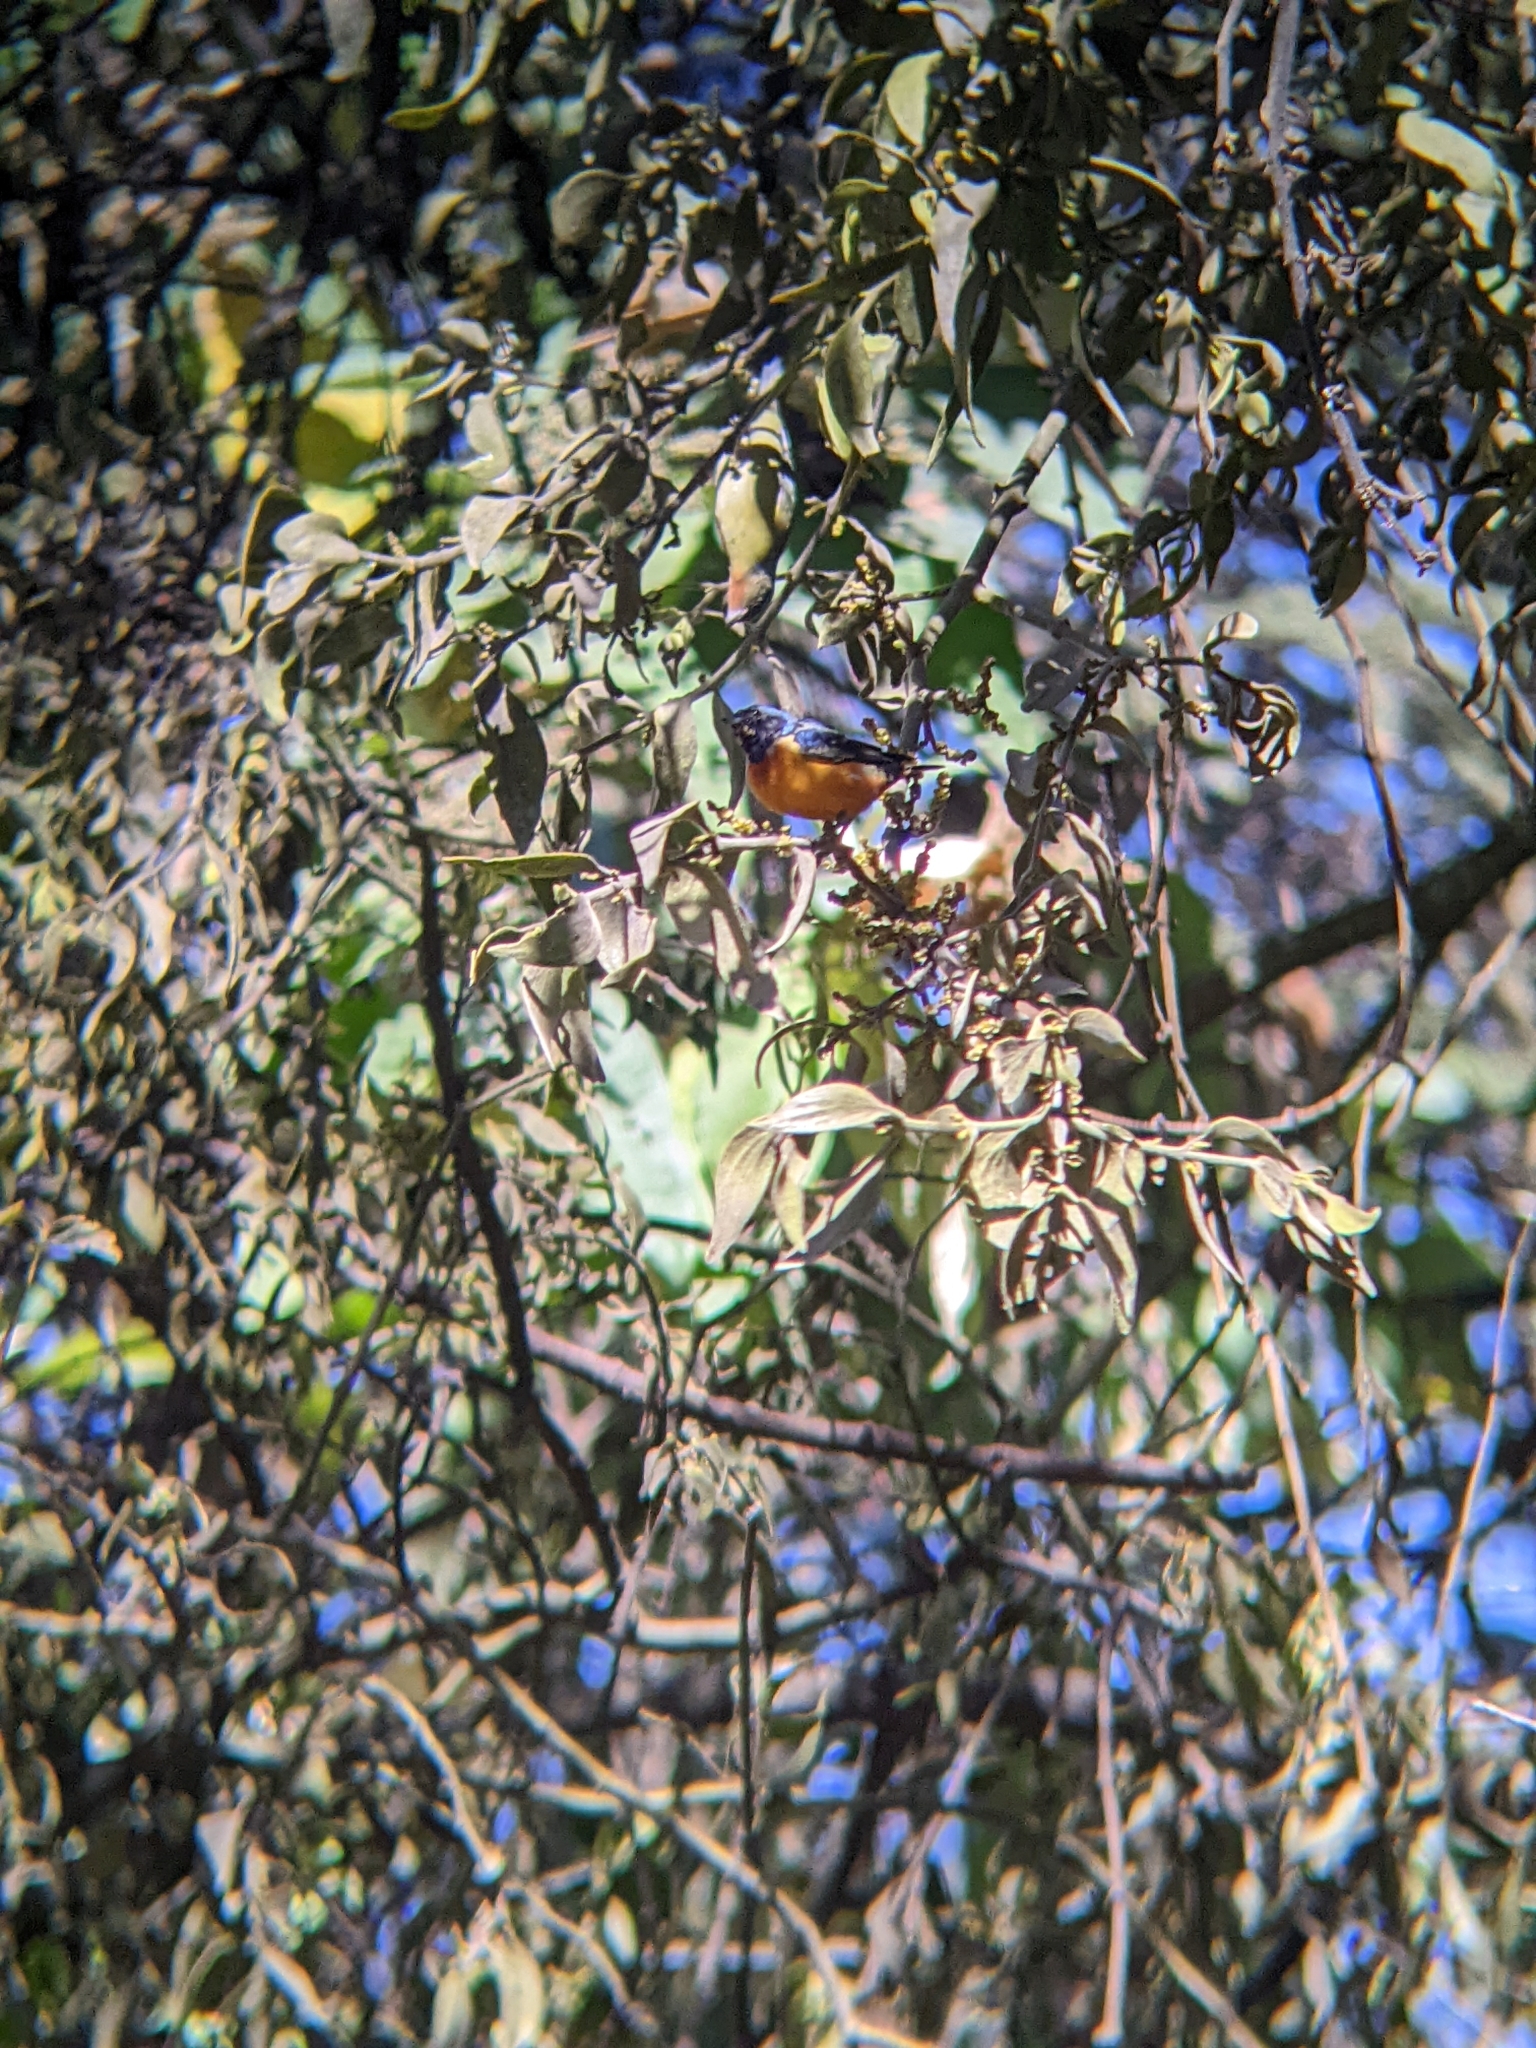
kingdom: Animalia
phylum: Chordata
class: Aves
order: Passeriformes
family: Fringillidae
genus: Euphonia
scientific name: Euphonia elegantissima
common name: Elegant euphonia
